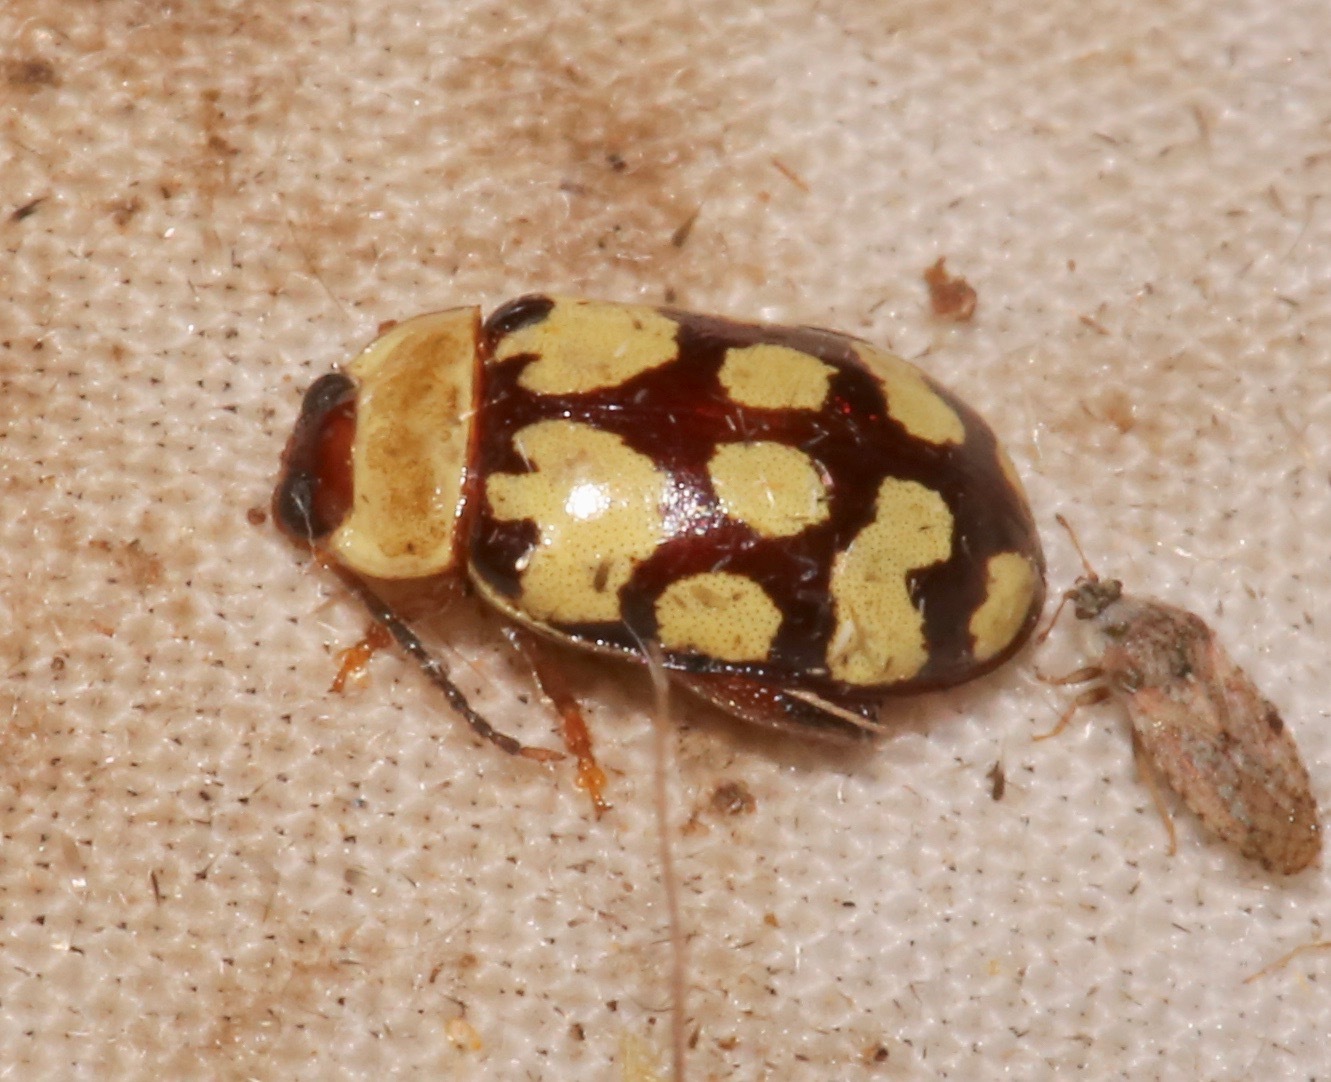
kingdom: Animalia
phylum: Arthropoda
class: Insecta
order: Coleoptera
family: Chrysomelidae
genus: Alagoasa
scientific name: Alagoasa
